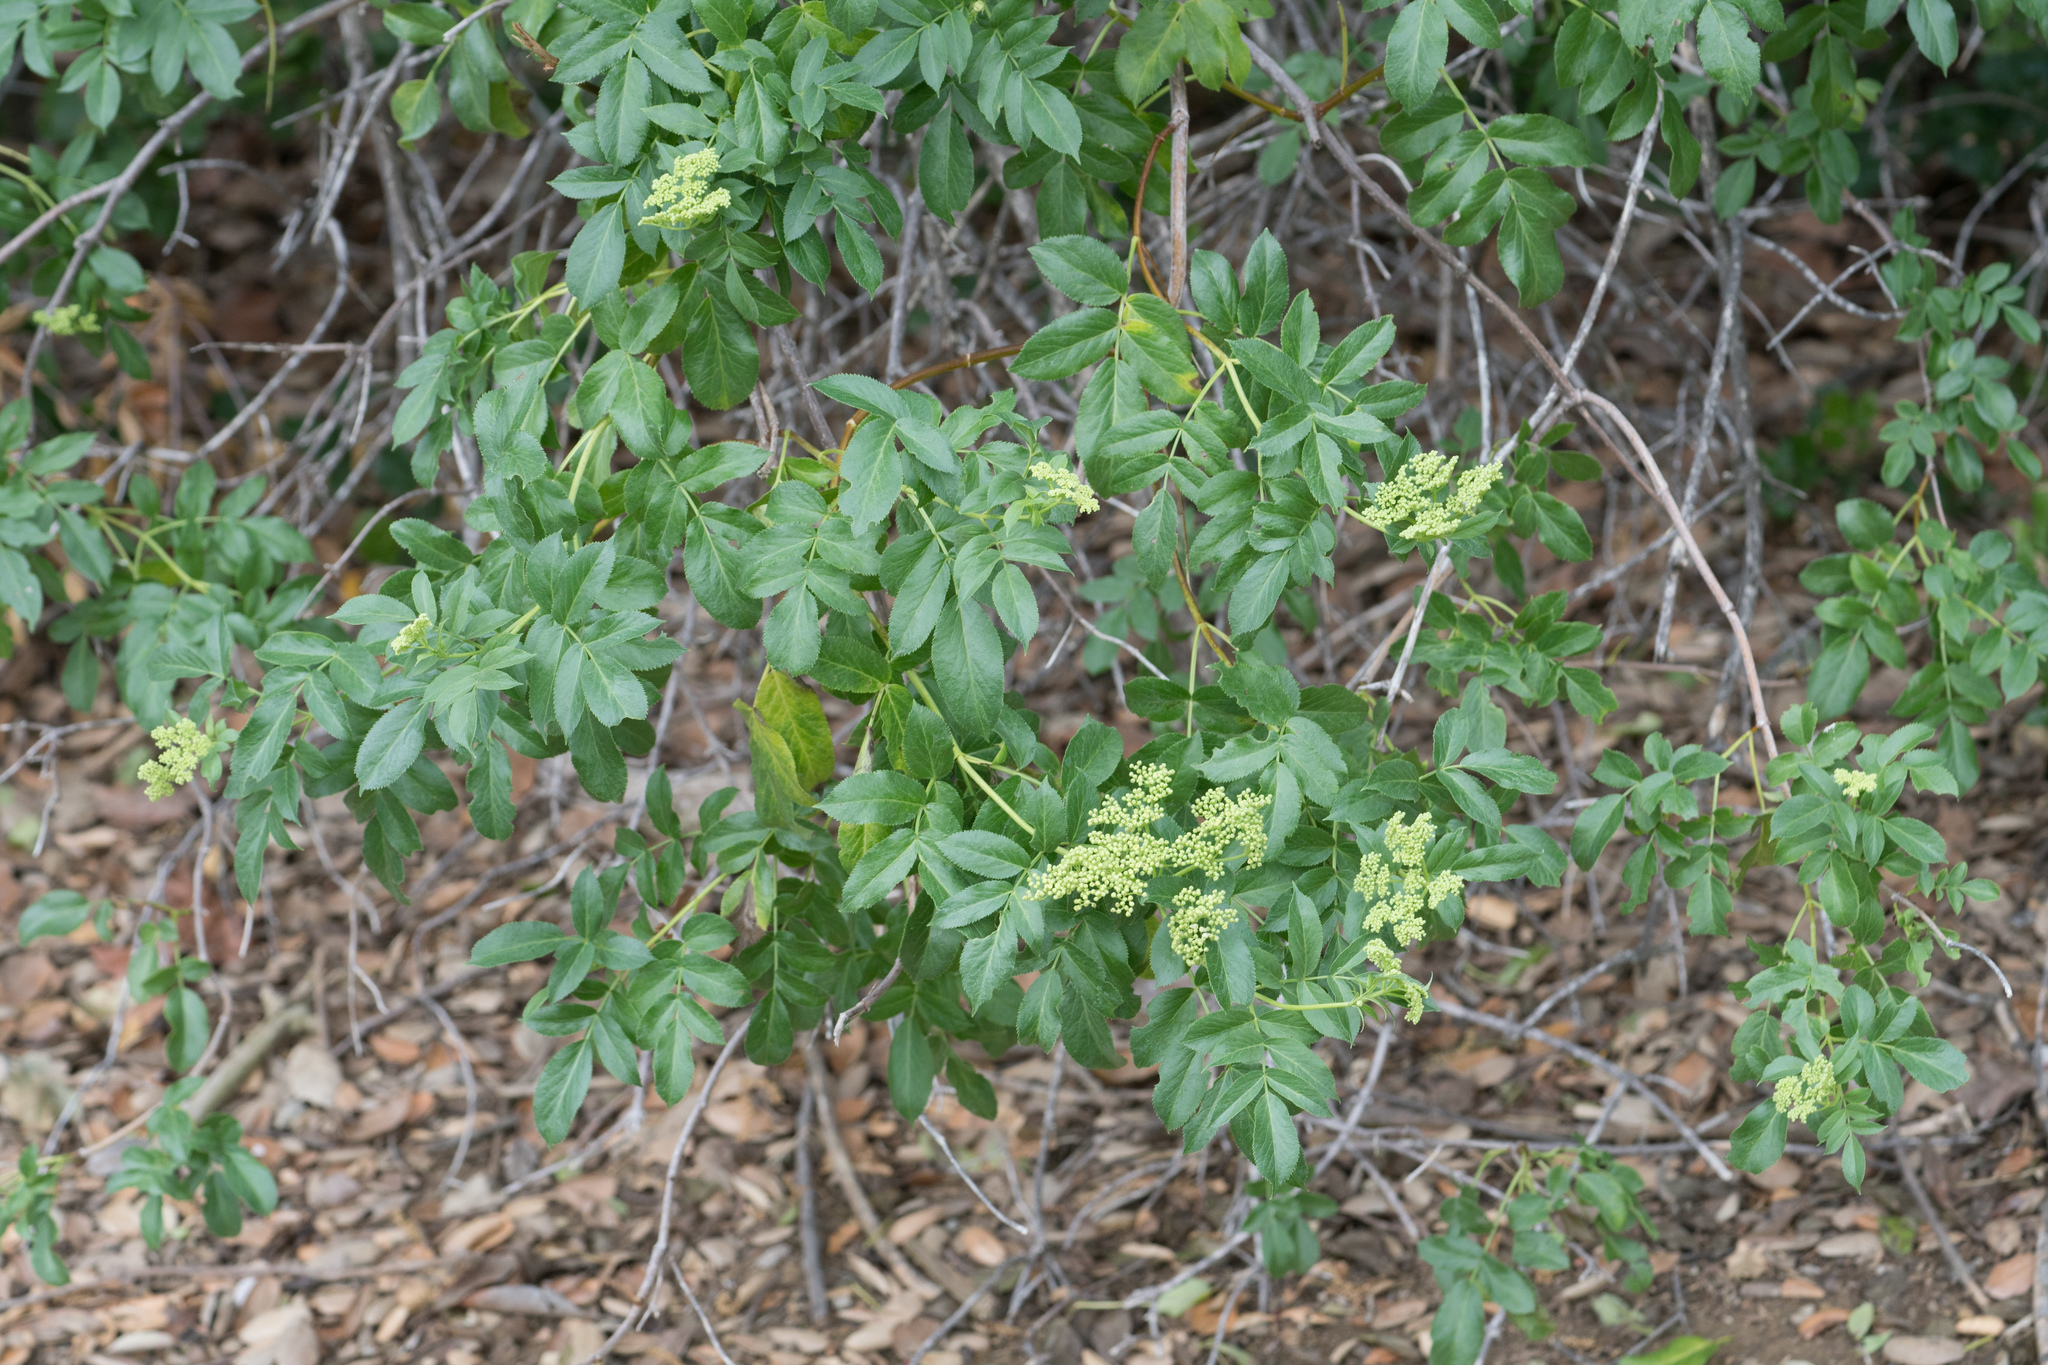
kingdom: Plantae
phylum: Tracheophyta
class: Magnoliopsida
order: Dipsacales
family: Viburnaceae
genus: Sambucus
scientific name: Sambucus cerulea
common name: Blue elder
